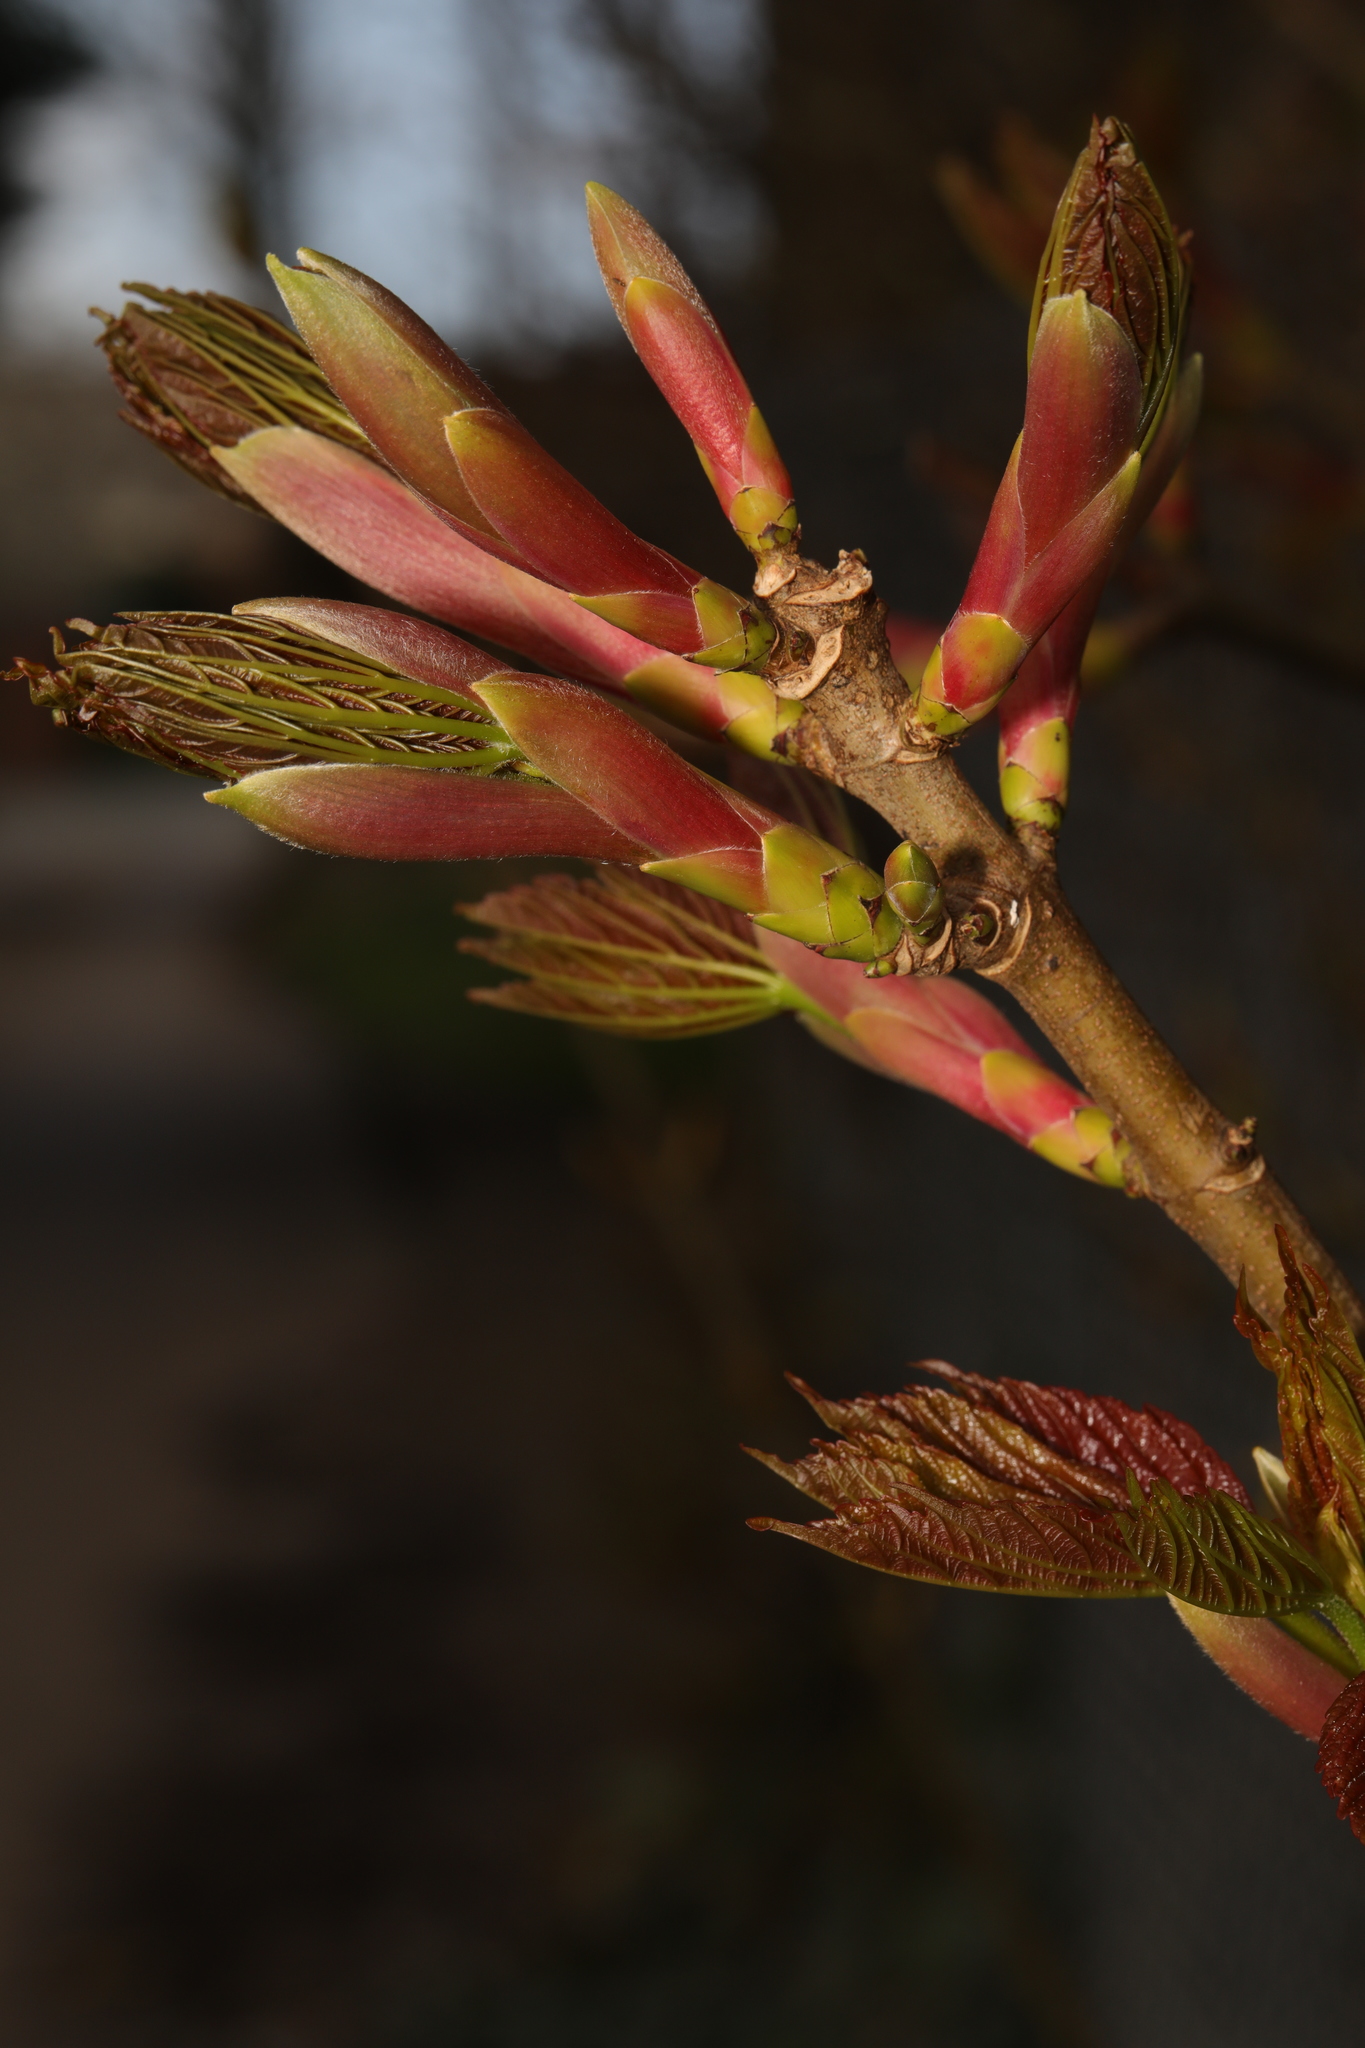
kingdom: Plantae
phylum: Tracheophyta
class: Magnoliopsida
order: Sapindales
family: Sapindaceae
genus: Acer
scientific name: Acer pseudoplatanus
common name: Sycamore
